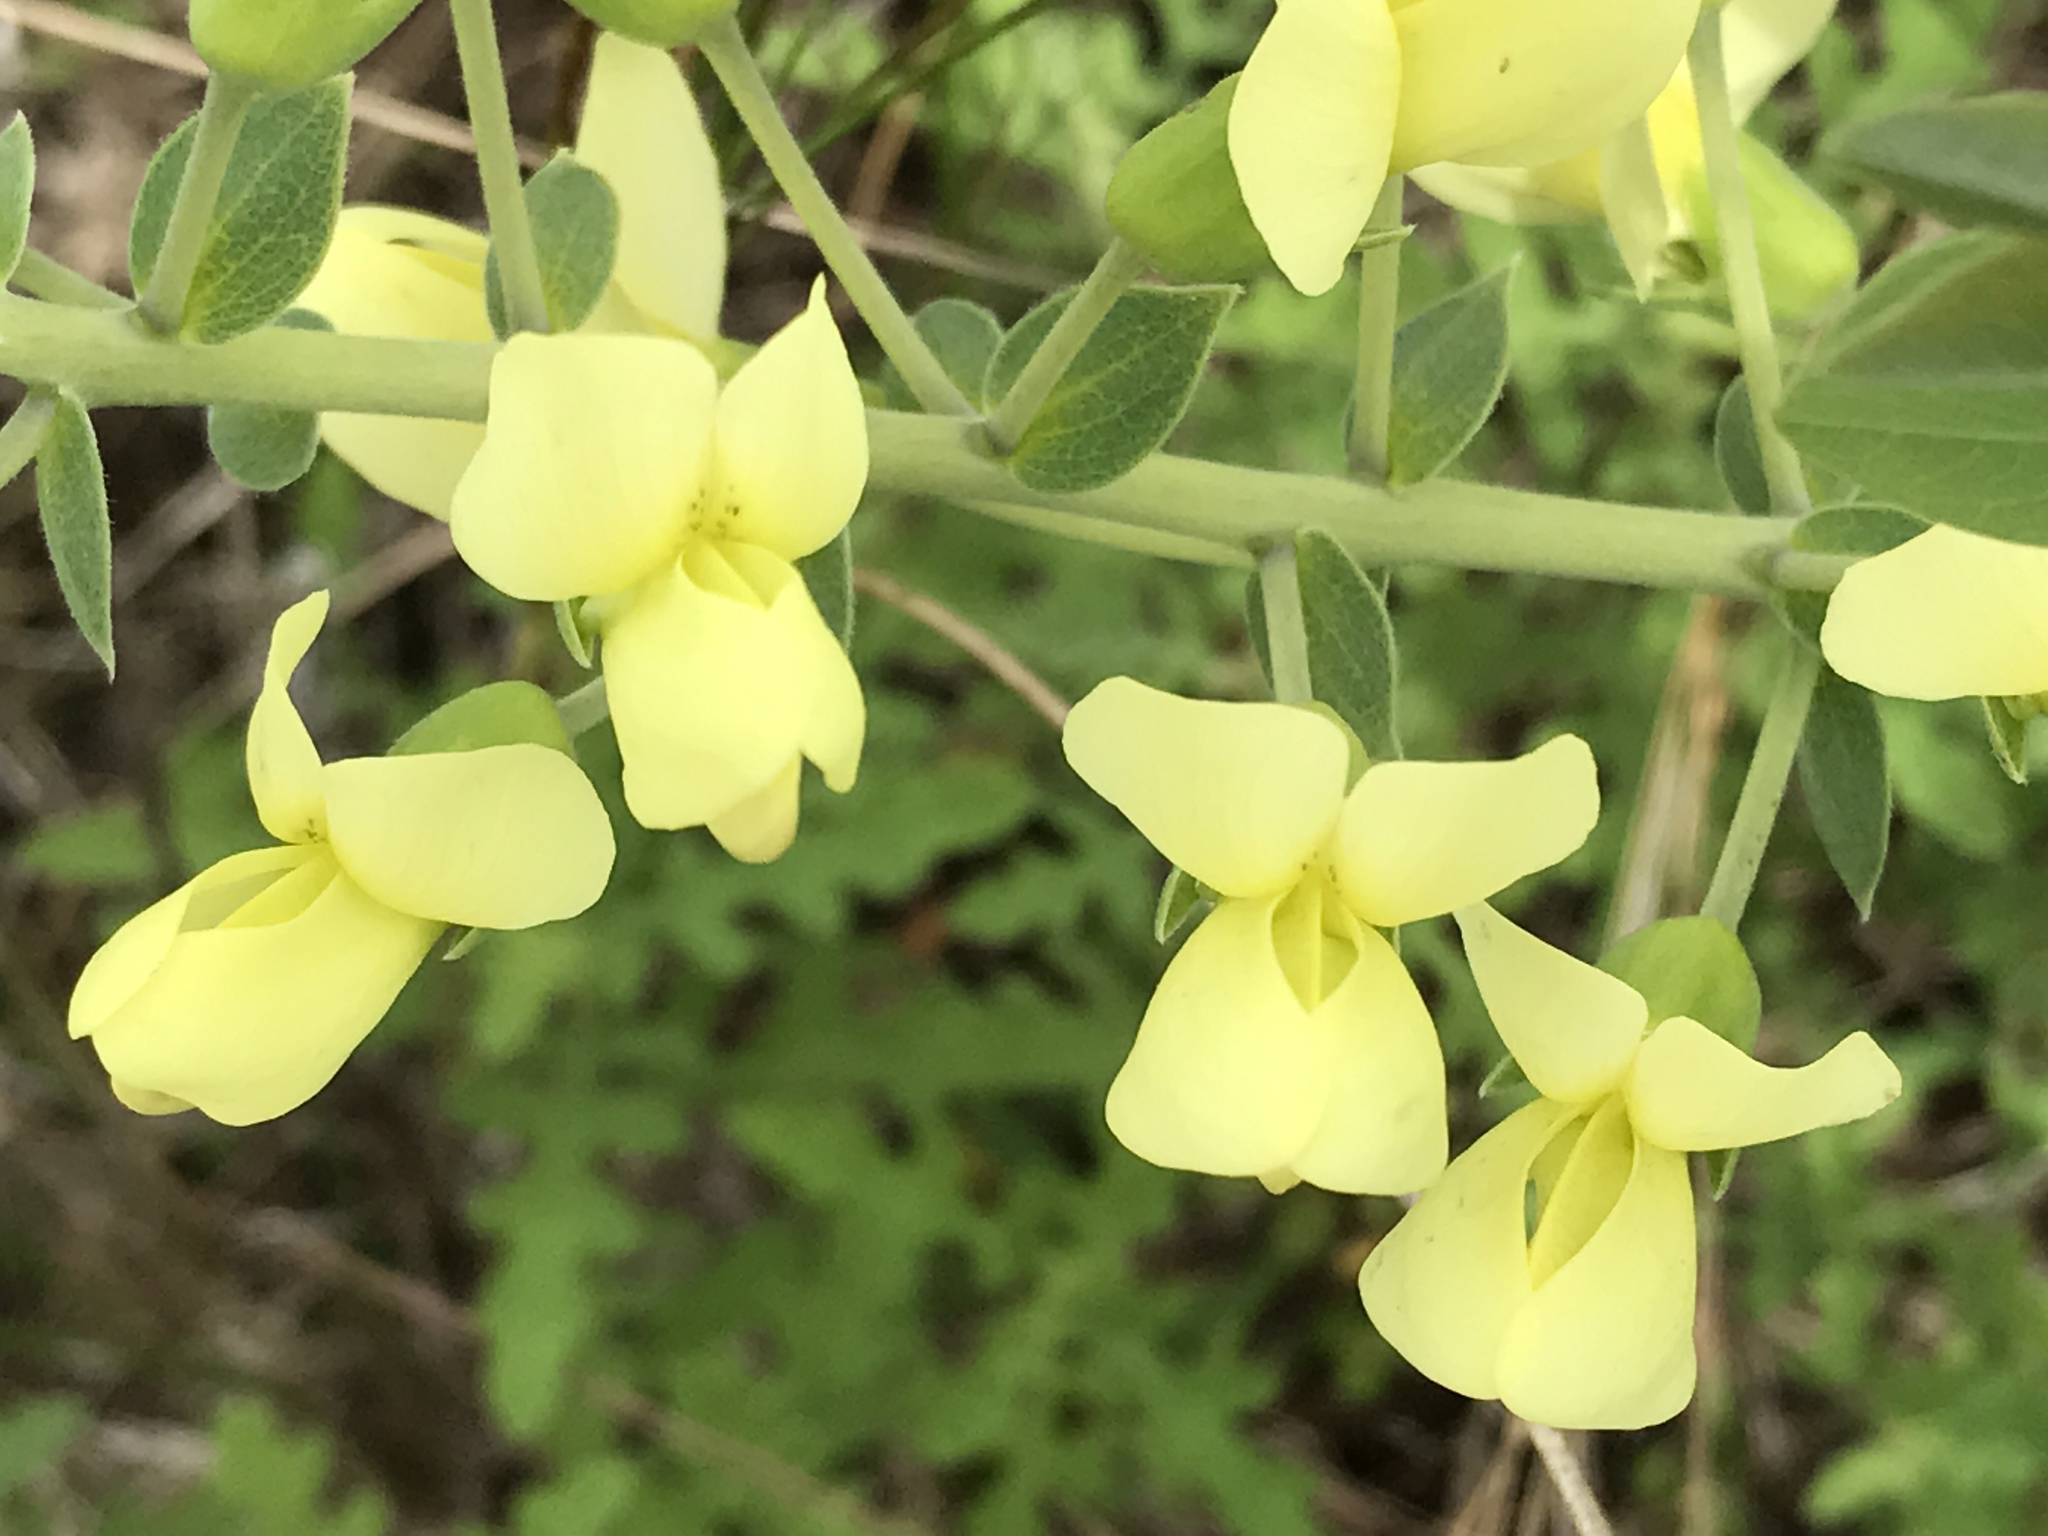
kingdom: Plantae
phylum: Tracheophyta
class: Magnoliopsida
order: Fabales
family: Fabaceae
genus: Baptisia
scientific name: Baptisia bracteata
